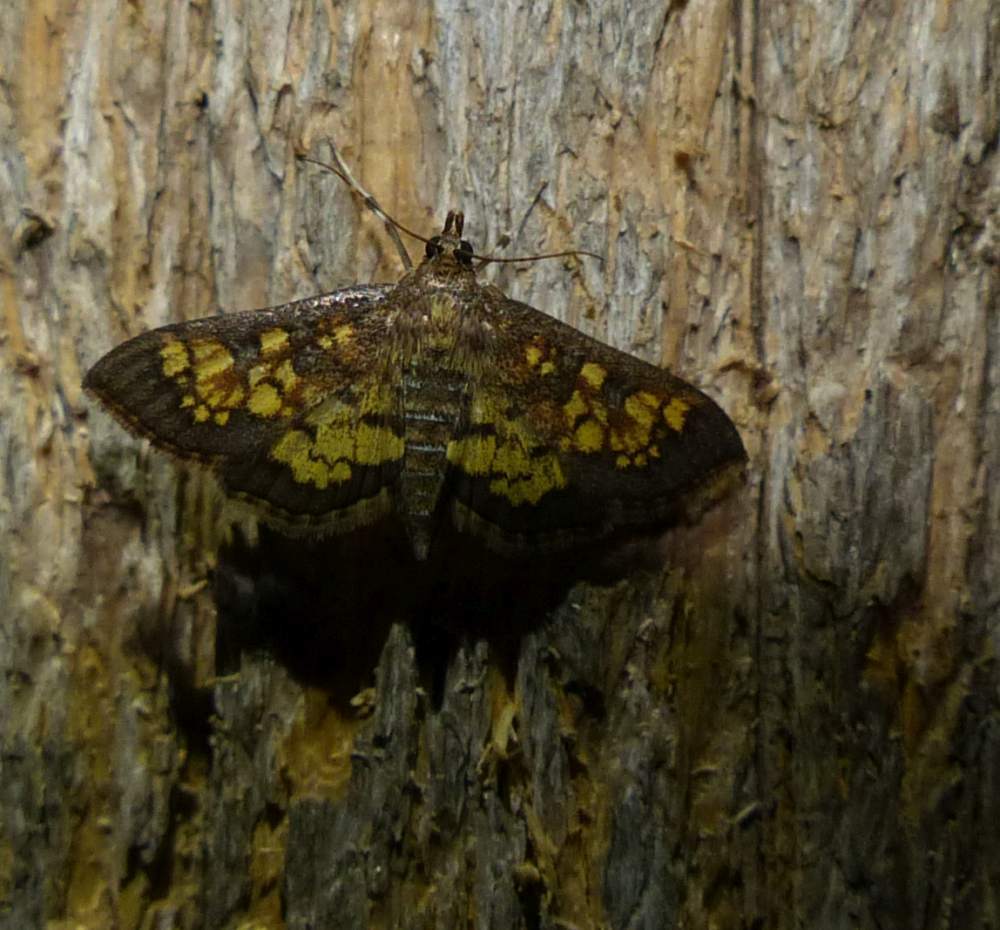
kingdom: Animalia
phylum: Arthropoda
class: Insecta
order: Lepidoptera
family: Crambidae
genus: Epipagis
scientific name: Epipagis adipaloides
